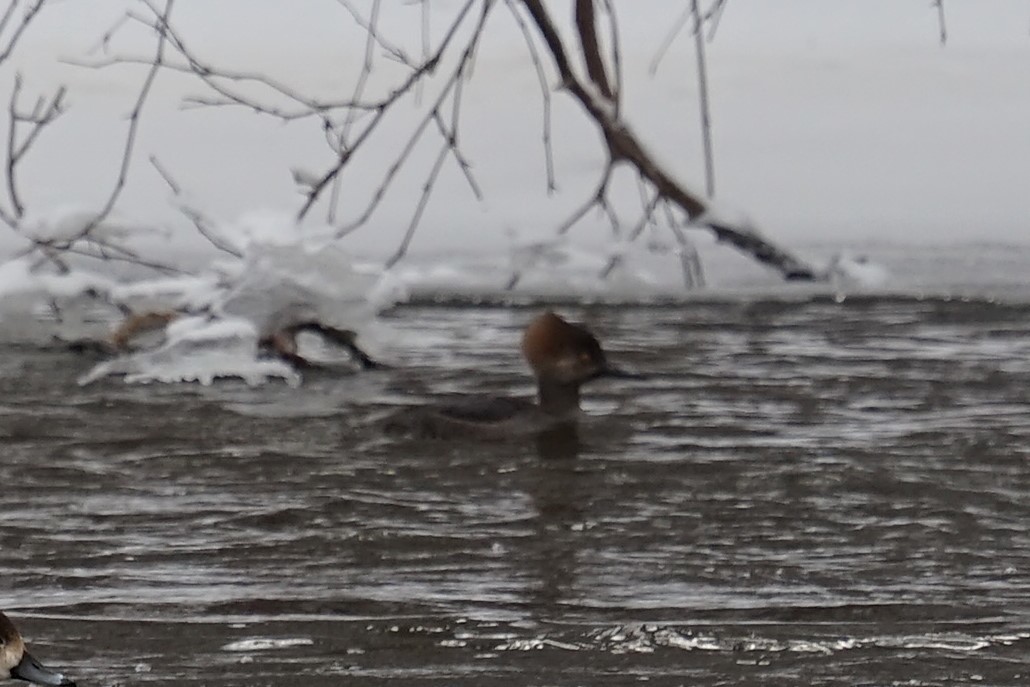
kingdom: Animalia
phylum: Chordata
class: Aves
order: Anseriformes
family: Anatidae
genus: Lophodytes
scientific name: Lophodytes cucullatus
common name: Hooded merganser
